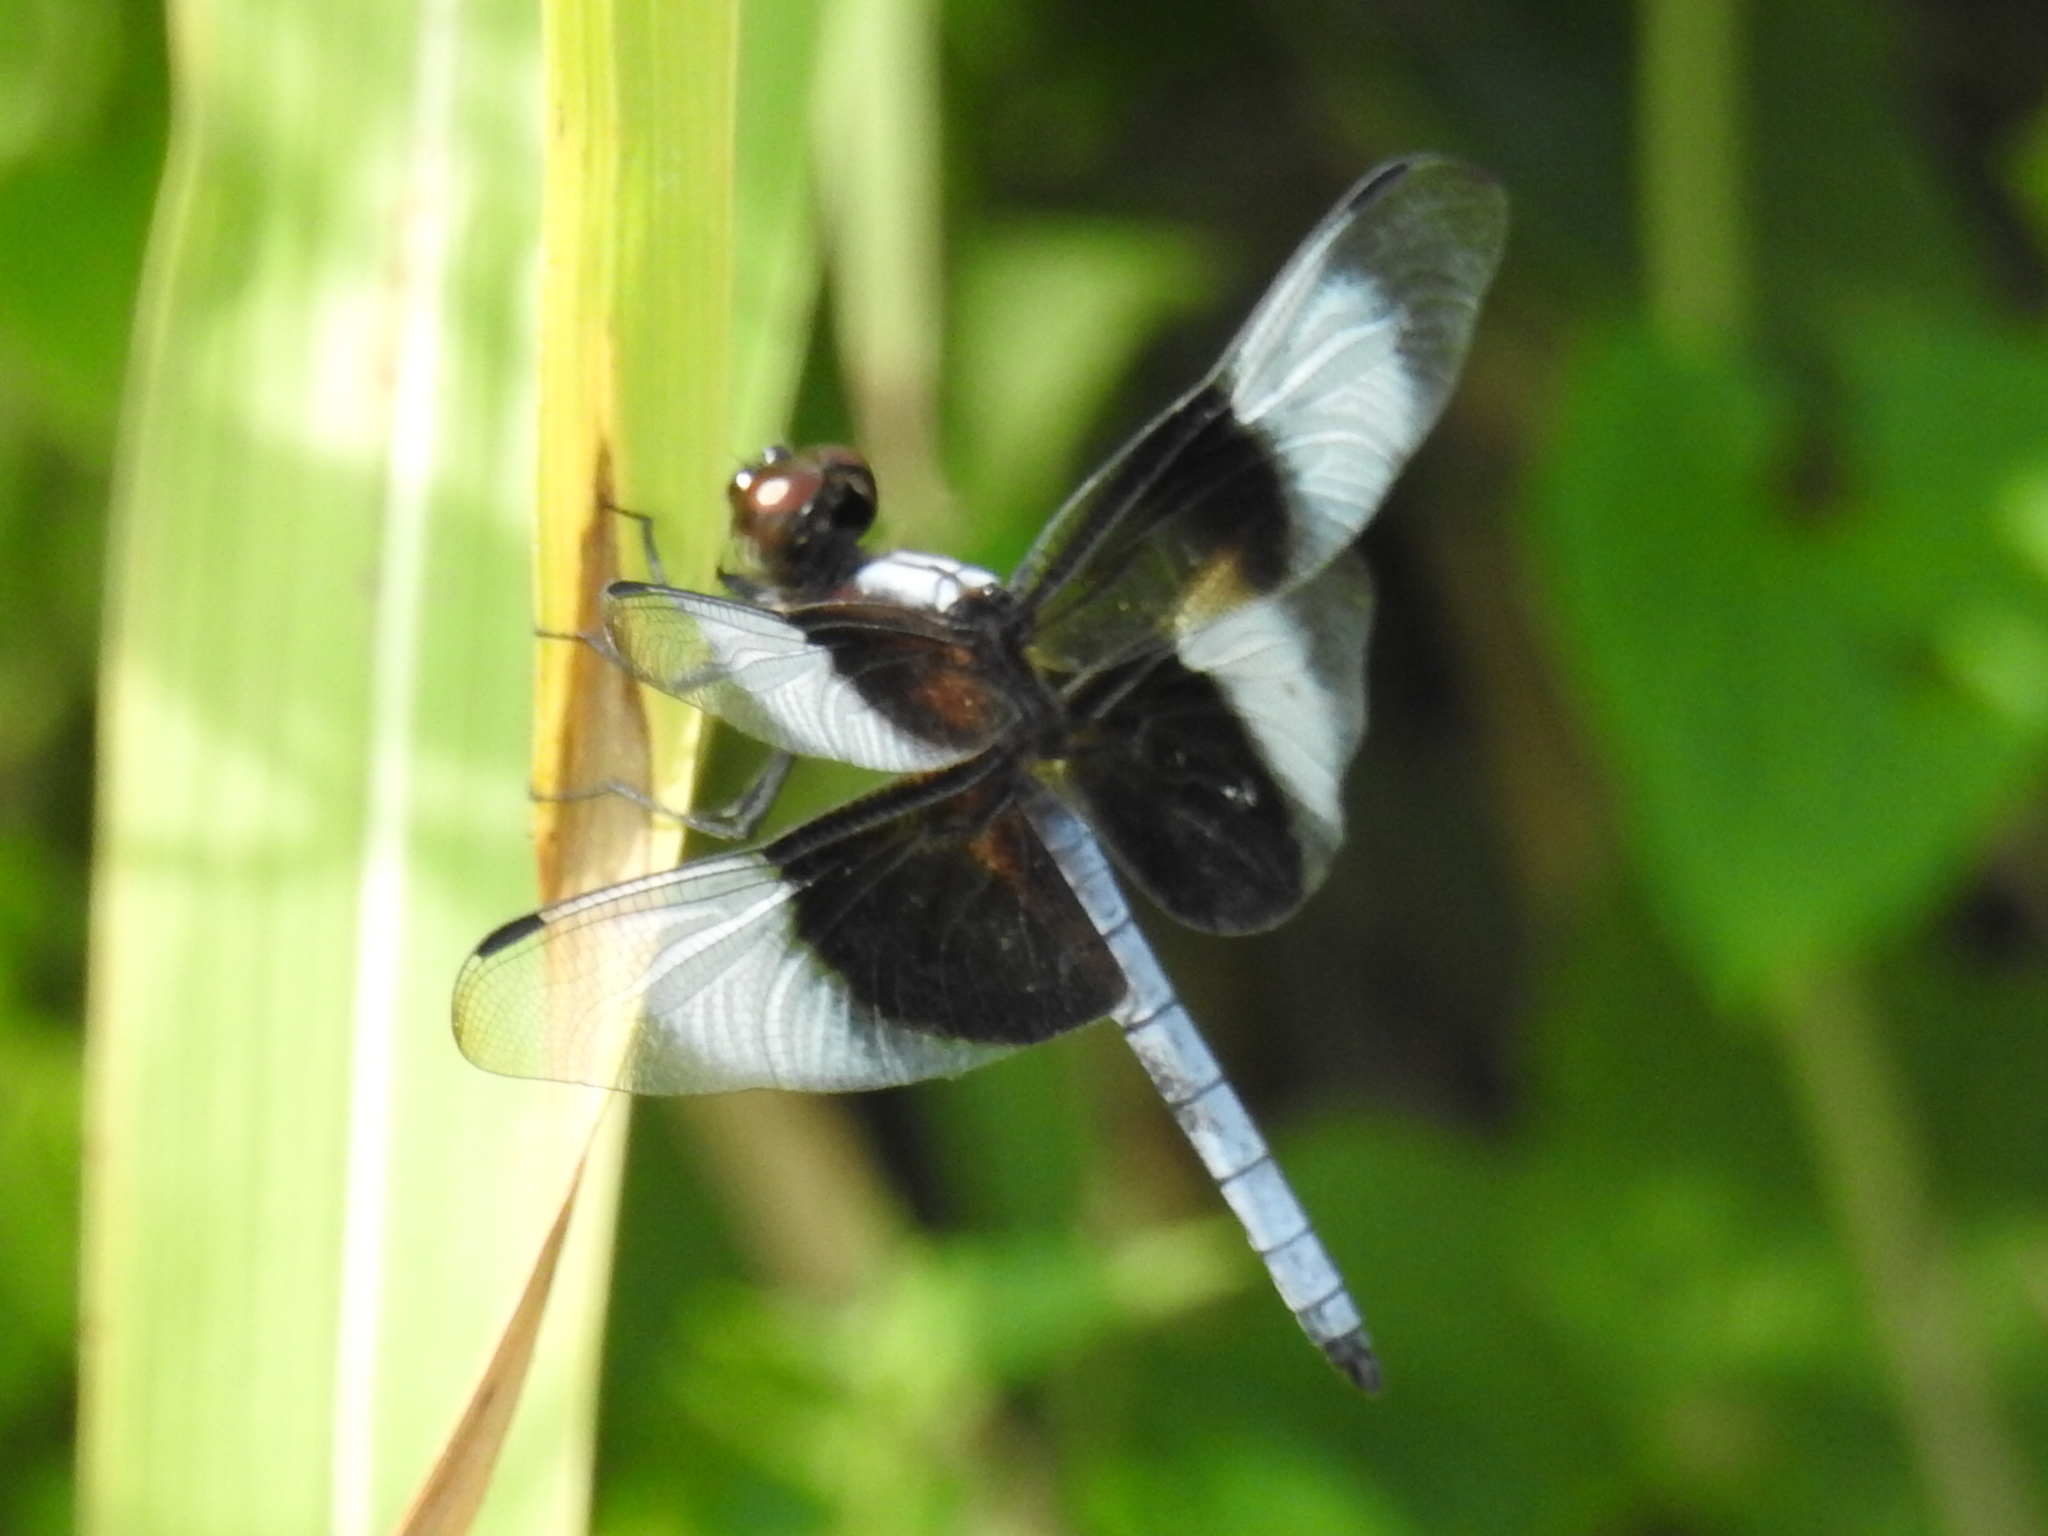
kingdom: Animalia
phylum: Arthropoda
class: Insecta
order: Odonata
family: Libellulidae
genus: Libellula
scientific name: Libellula luctuosa
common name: Widow skimmer
